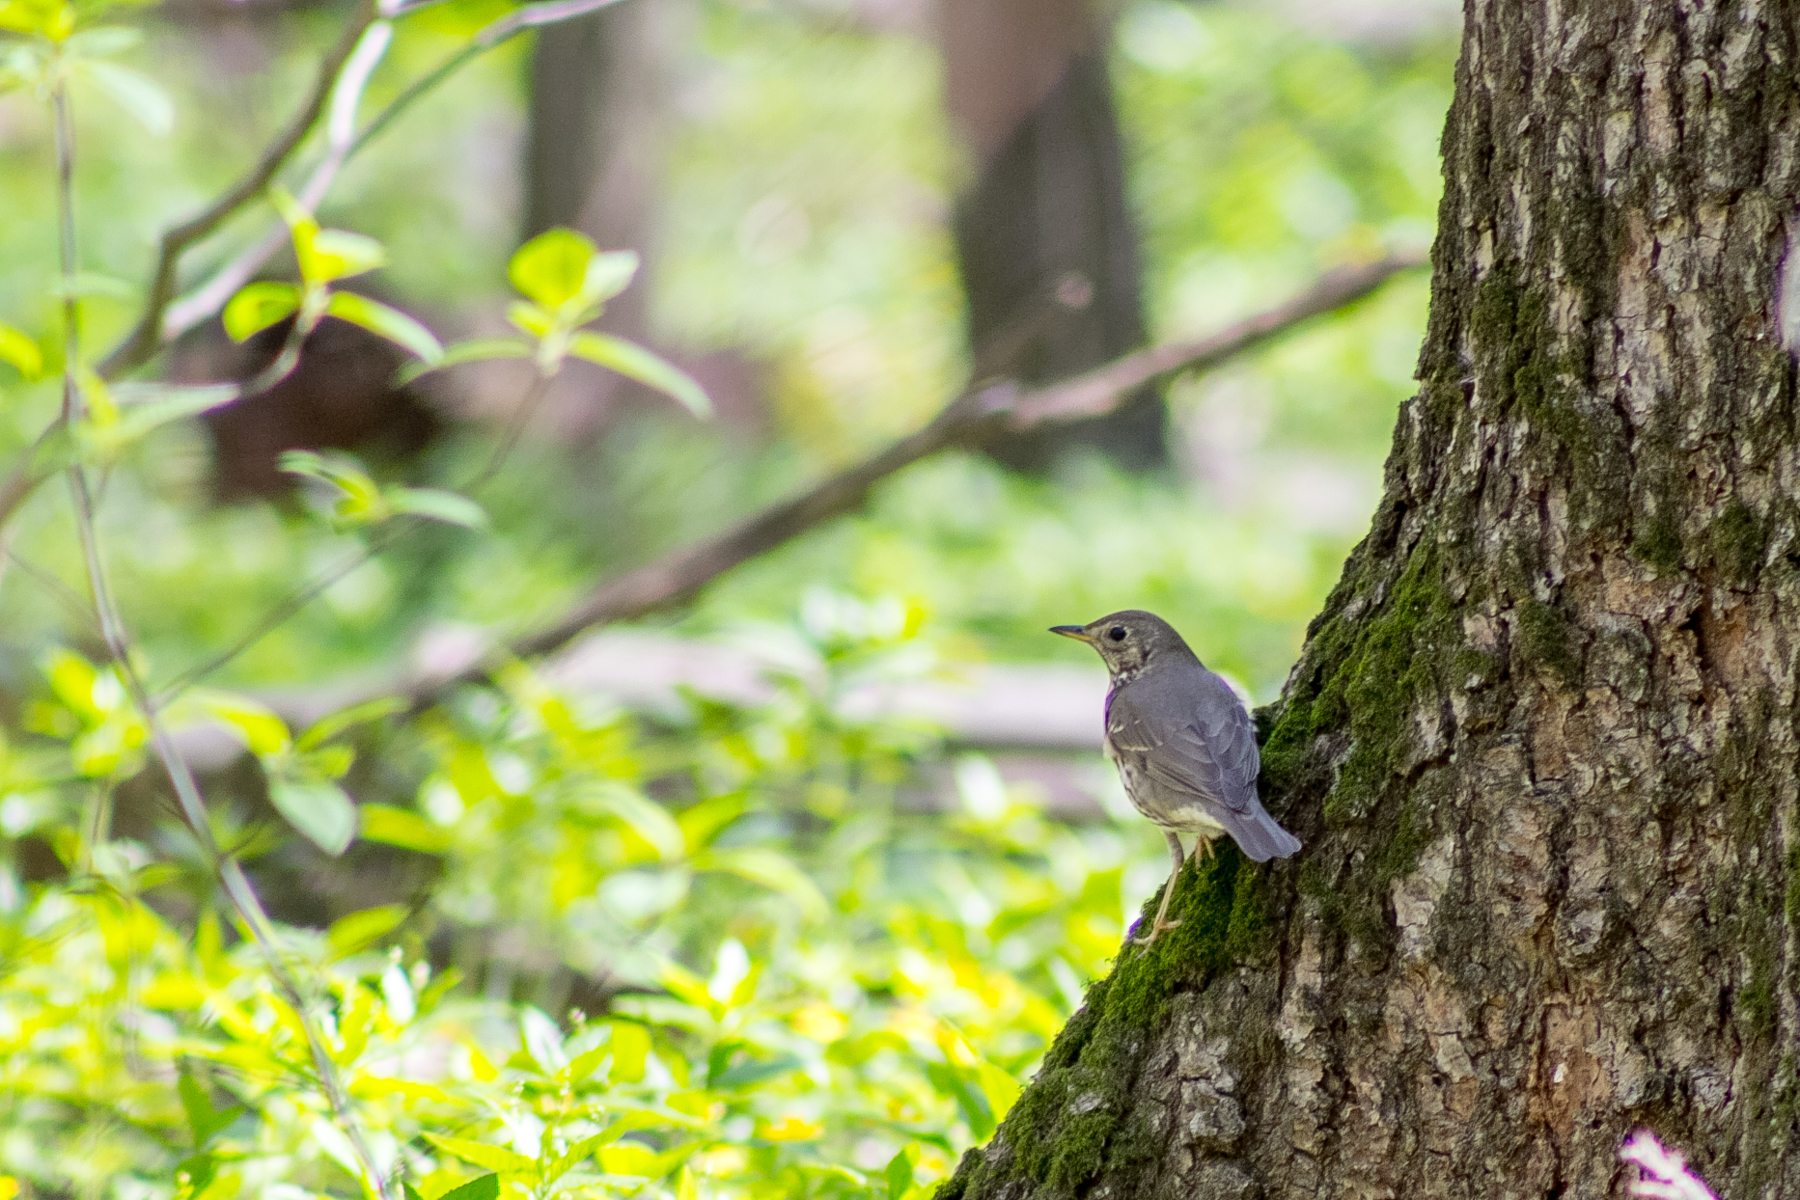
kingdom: Animalia
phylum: Chordata
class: Aves
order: Passeriformes
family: Turdidae
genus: Turdus
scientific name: Turdus philomelos
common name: Song thrush
